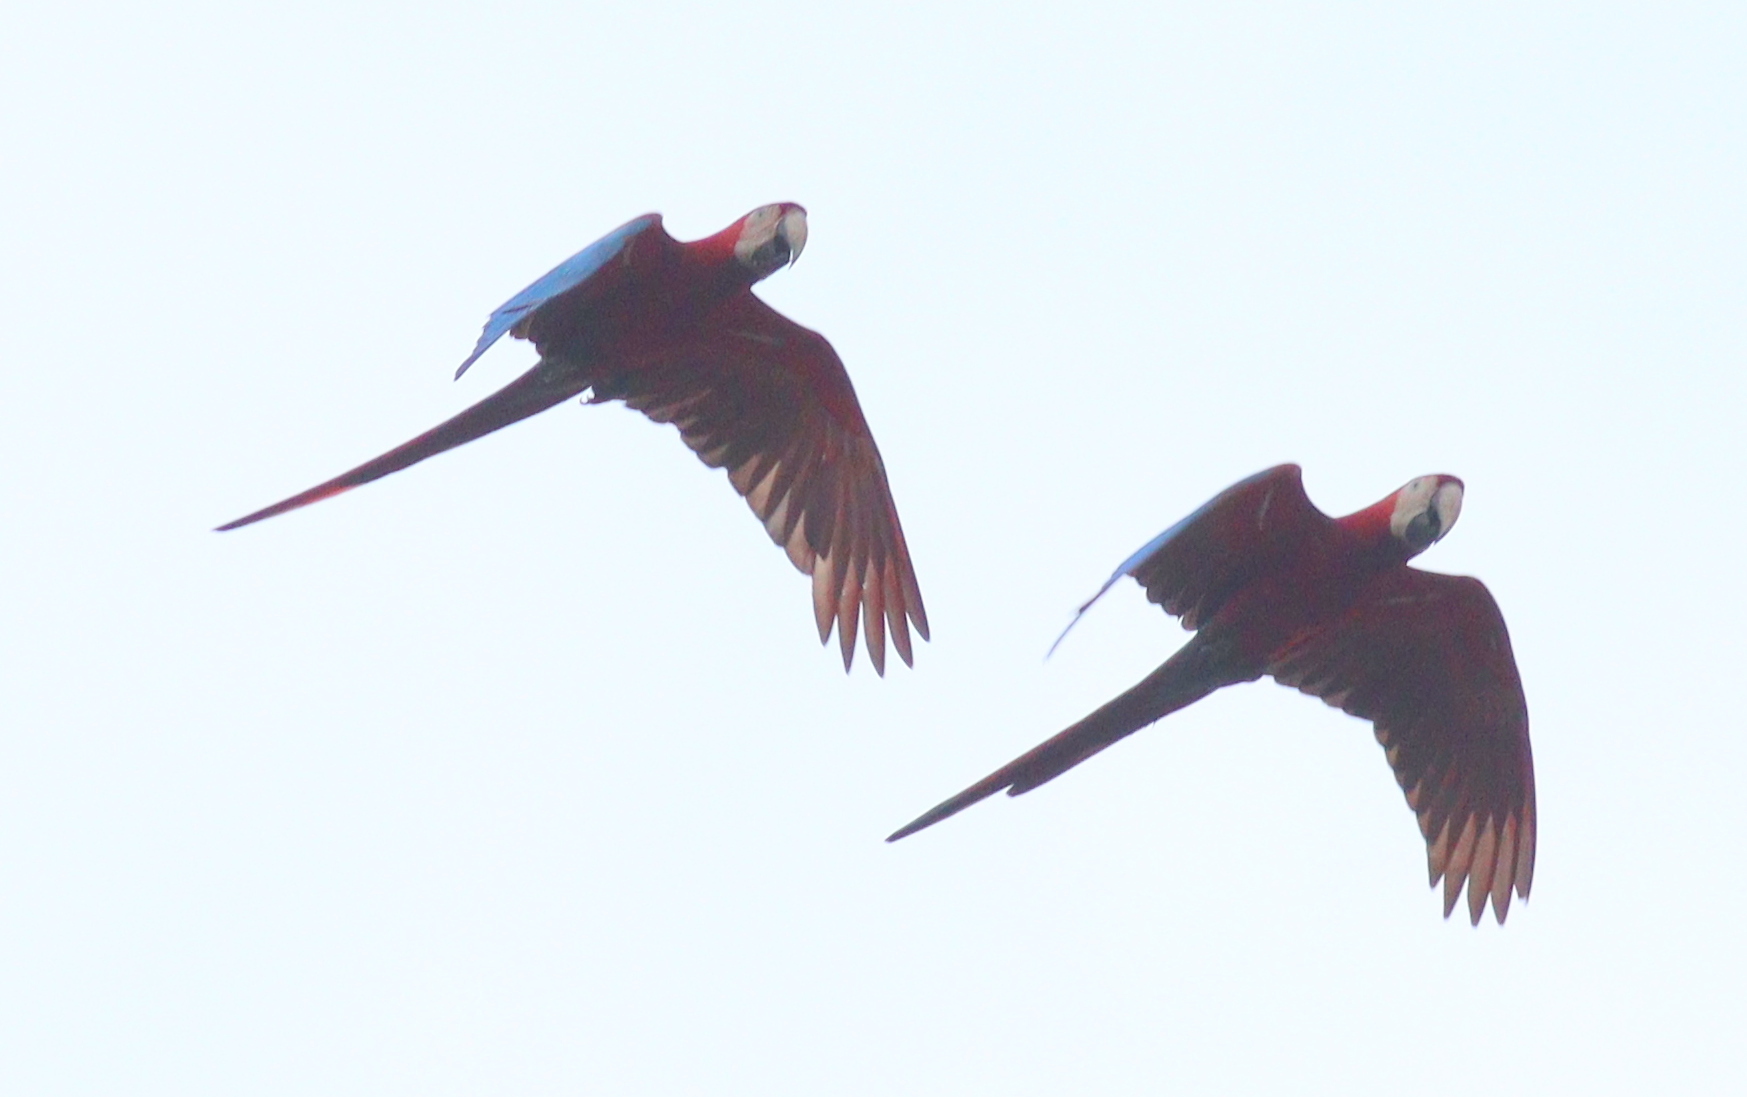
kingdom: Animalia
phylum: Chordata
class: Aves
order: Psittaciformes
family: Psittacidae
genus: Ara
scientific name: Ara chloropterus
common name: Red-and-green macaw
